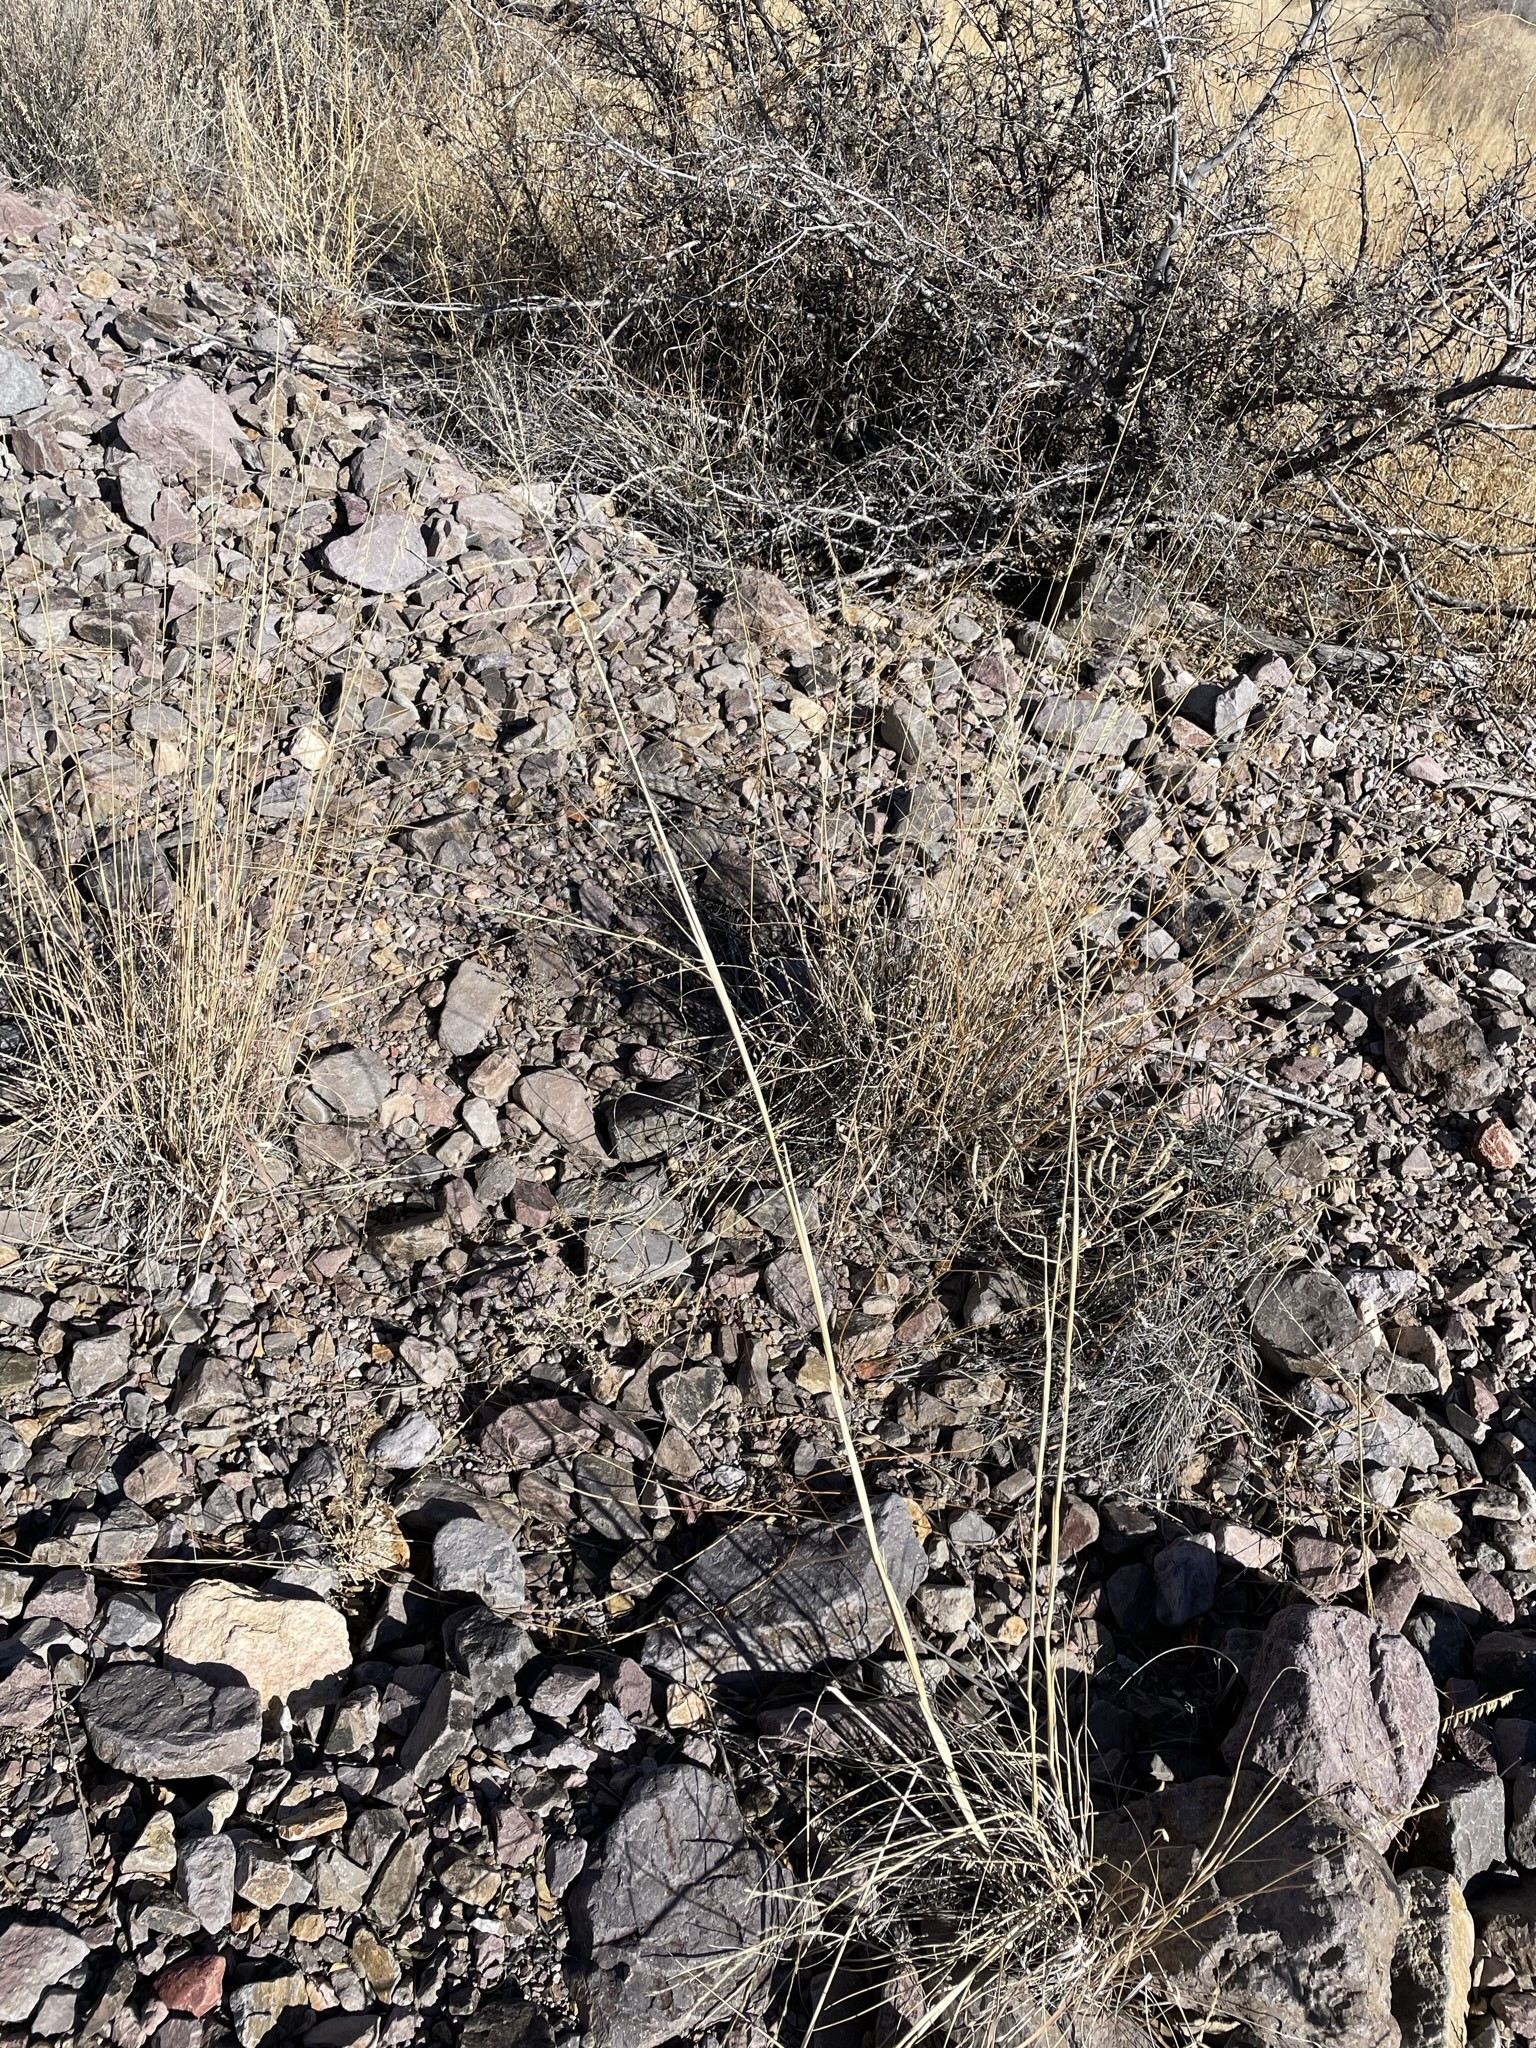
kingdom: Plantae
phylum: Tracheophyta
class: Liliopsida
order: Poales
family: Poaceae
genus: Disakisperma
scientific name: Disakisperma dubium
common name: Green sprangletop
